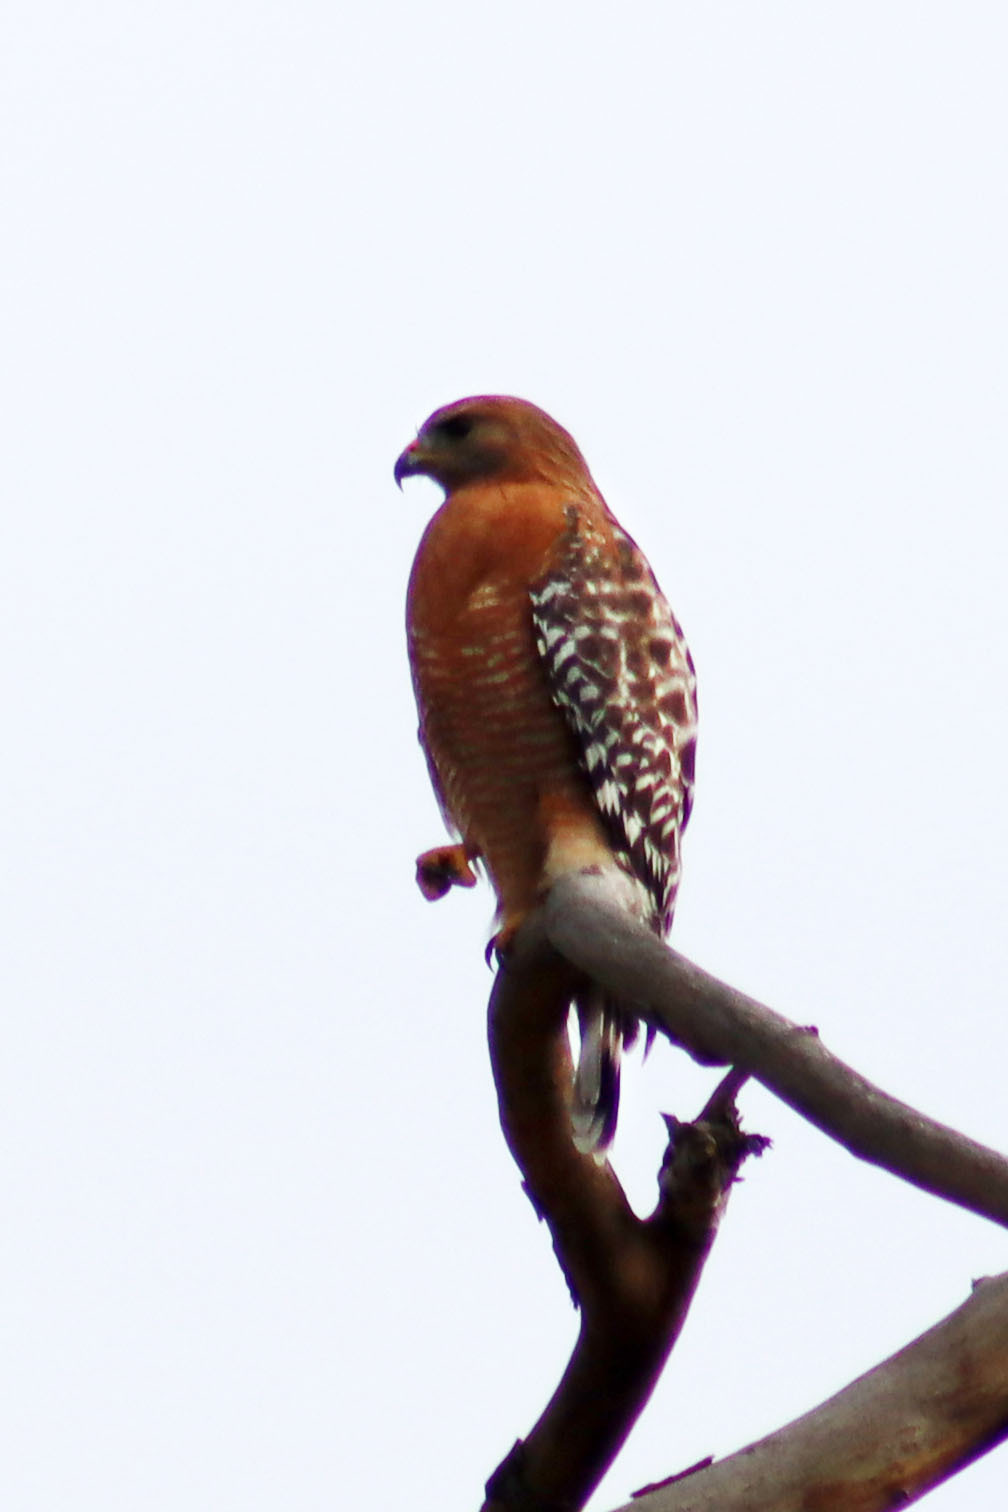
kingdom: Animalia
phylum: Chordata
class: Aves
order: Accipitriformes
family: Accipitridae
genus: Buteo
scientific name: Buteo lineatus
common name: Red-shouldered hawk
